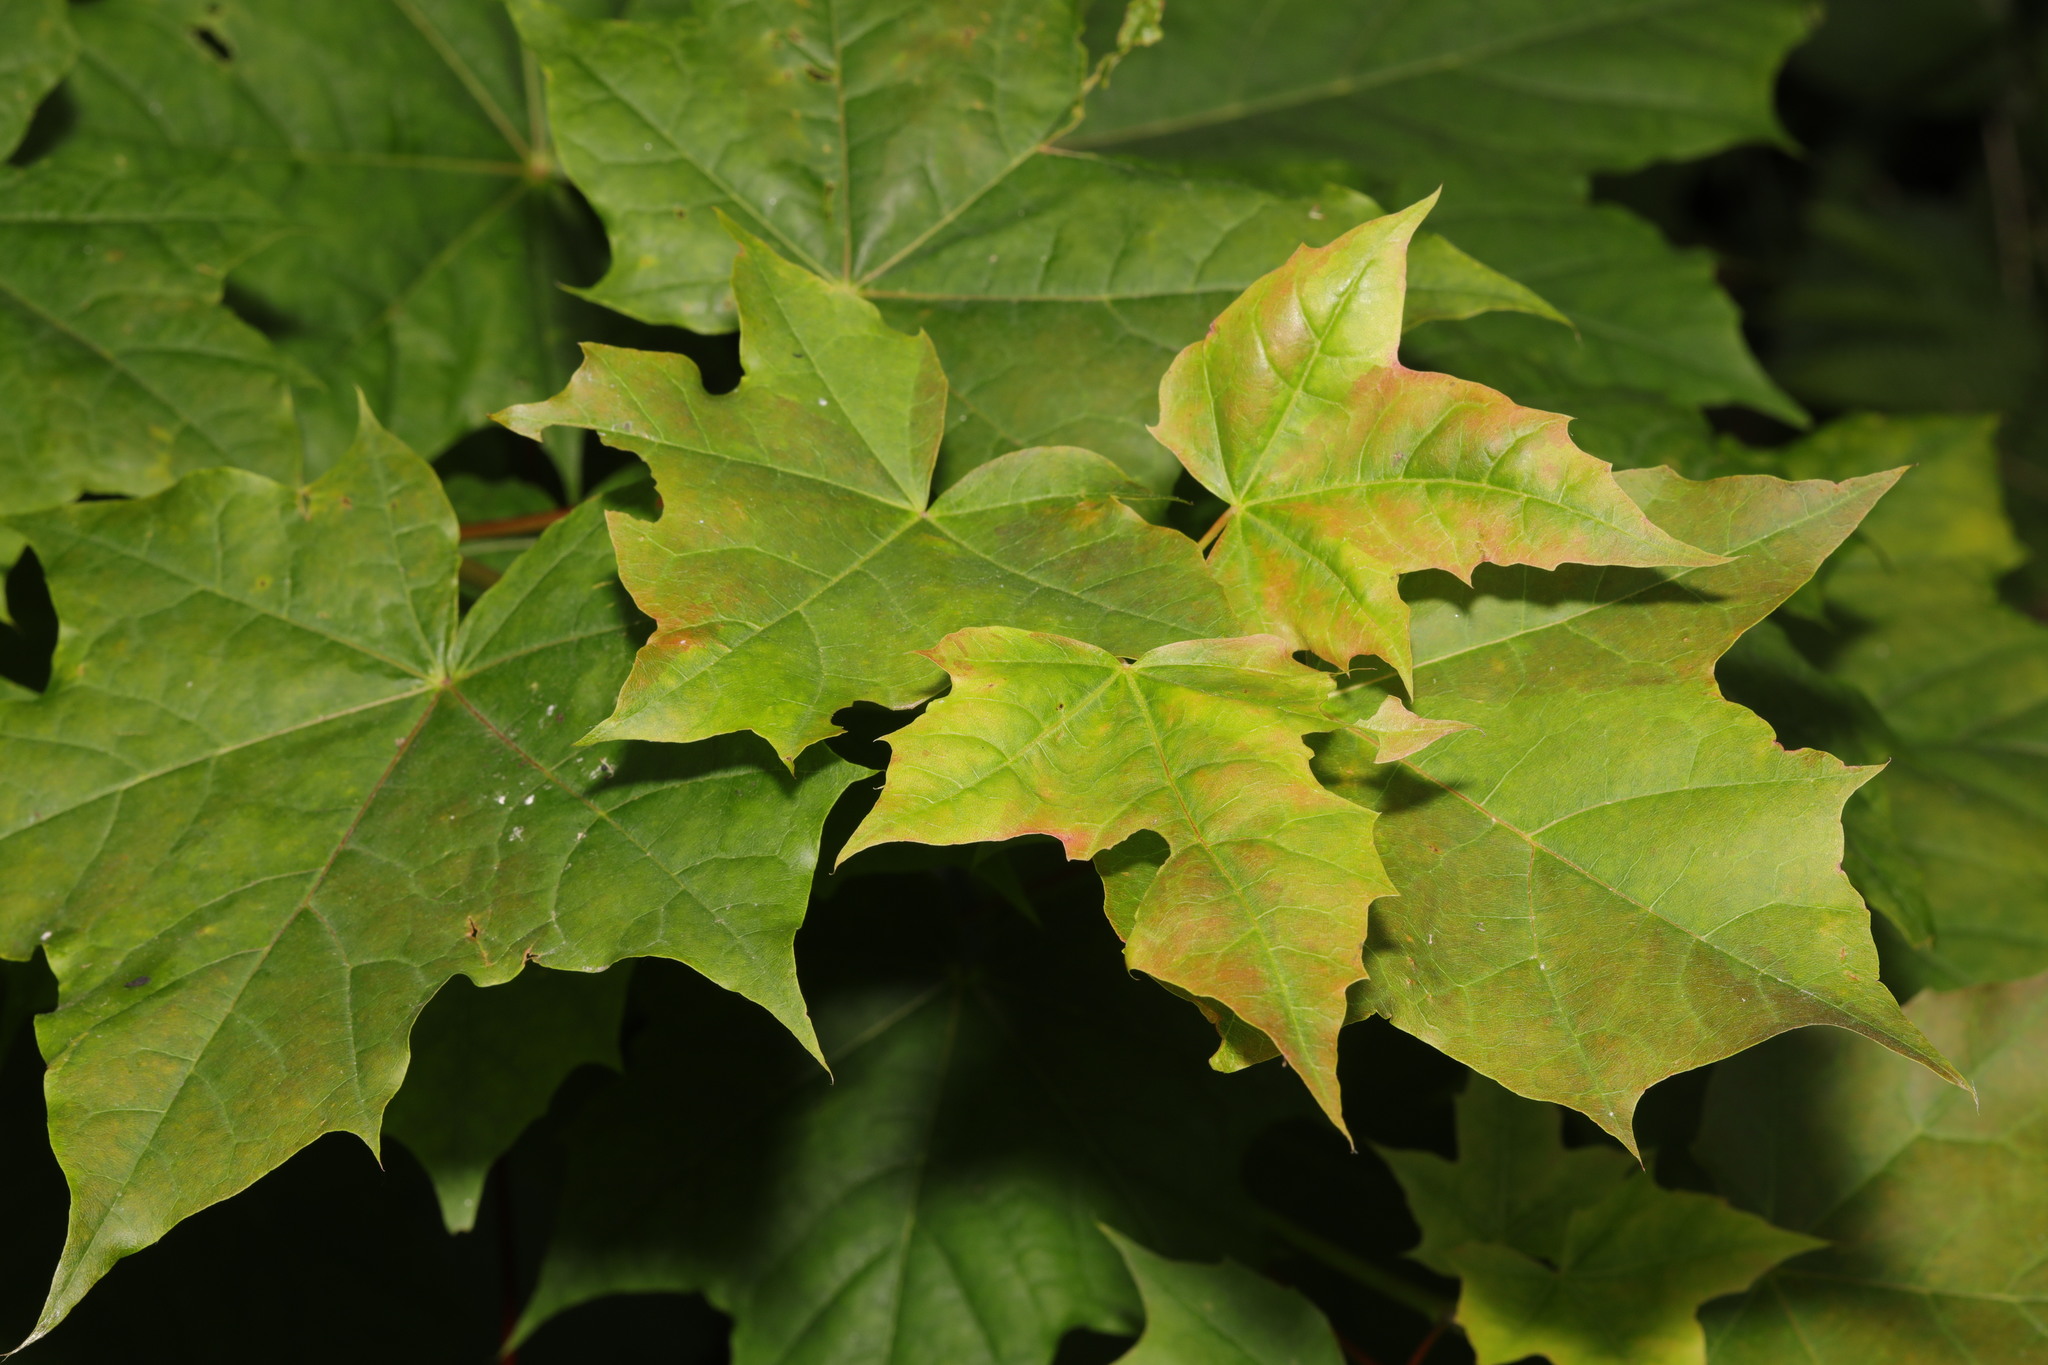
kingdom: Plantae
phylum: Tracheophyta
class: Magnoliopsida
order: Sapindales
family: Sapindaceae
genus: Acer
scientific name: Acer platanoides
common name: Norway maple
